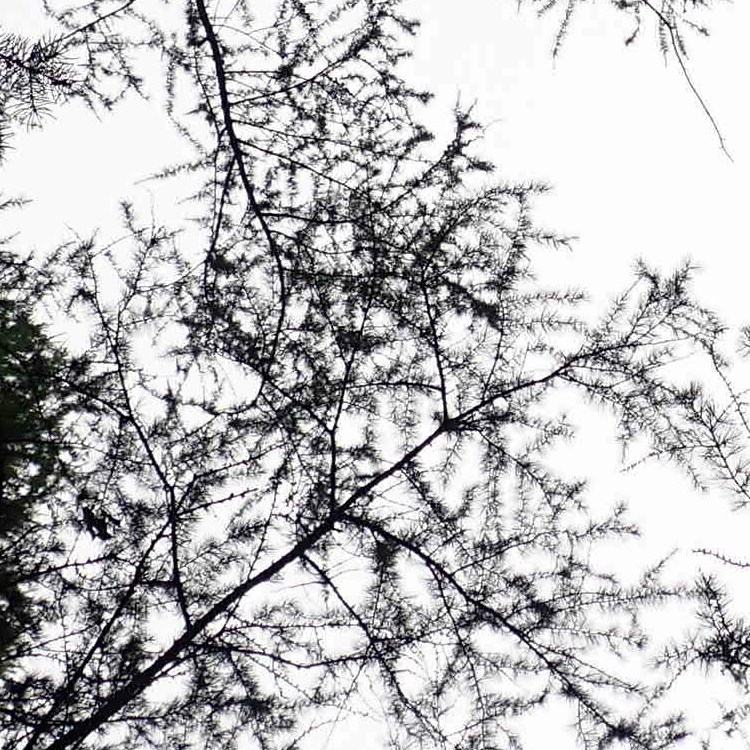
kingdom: Plantae
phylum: Tracheophyta
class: Pinopsida
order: Pinales
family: Pinaceae
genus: Larix
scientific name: Larix laricina
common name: American larch
